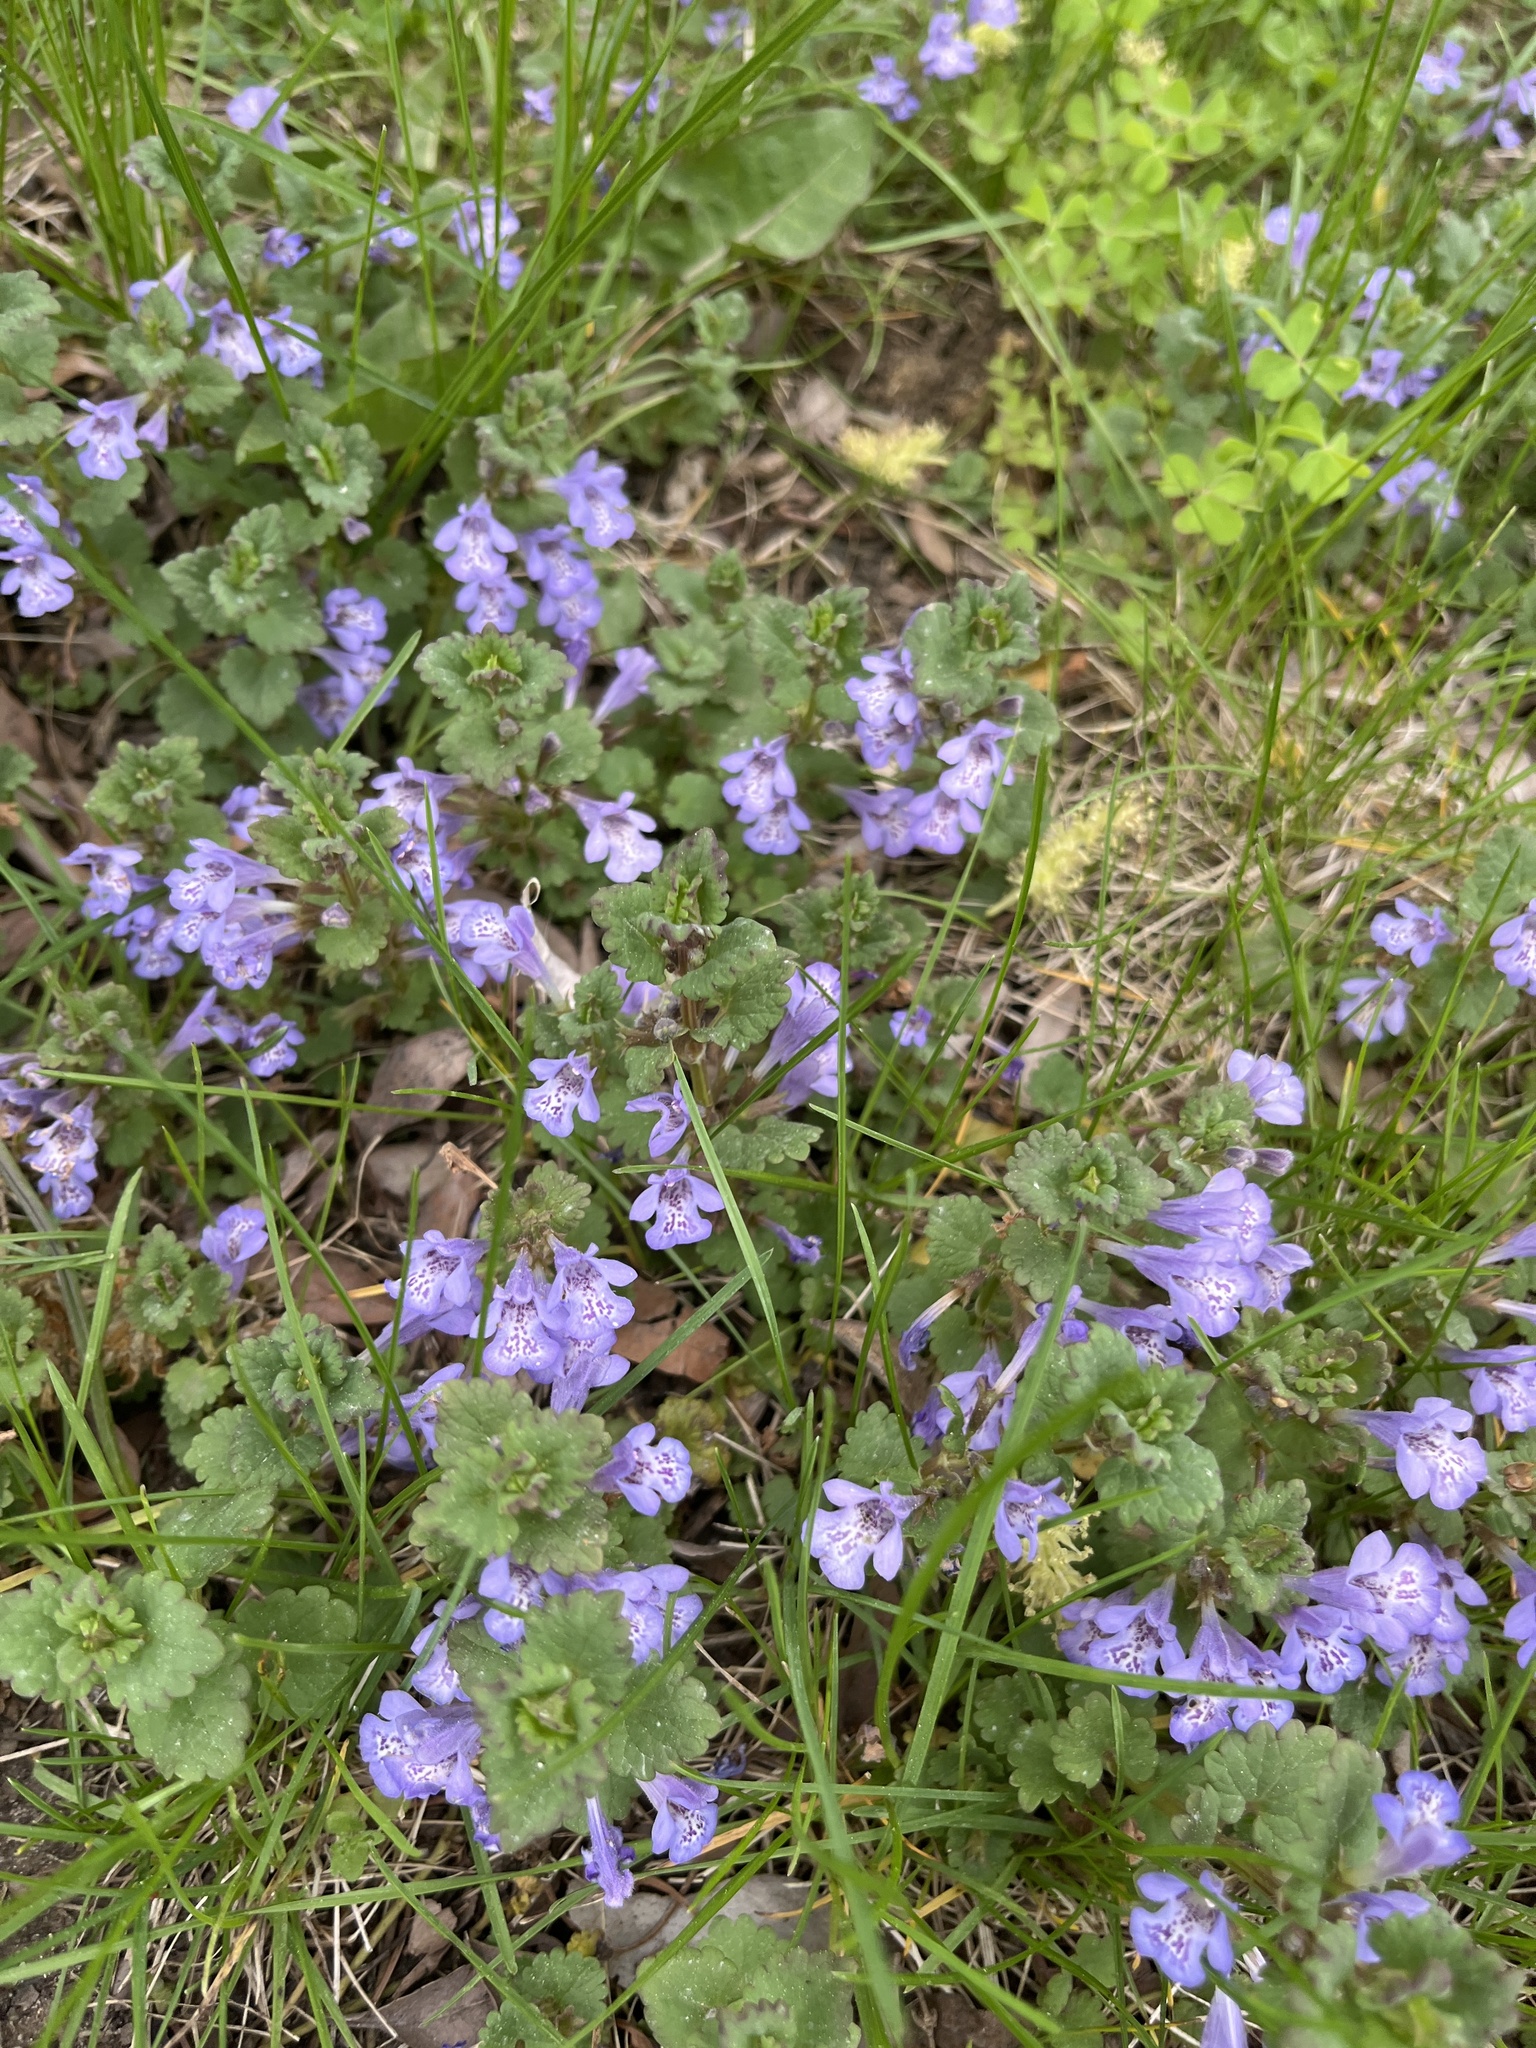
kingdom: Plantae
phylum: Tracheophyta
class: Magnoliopsida
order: Lamiales
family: Lamiaceae
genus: Glechoma
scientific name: Glechoma hederacea
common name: Ground ivy
